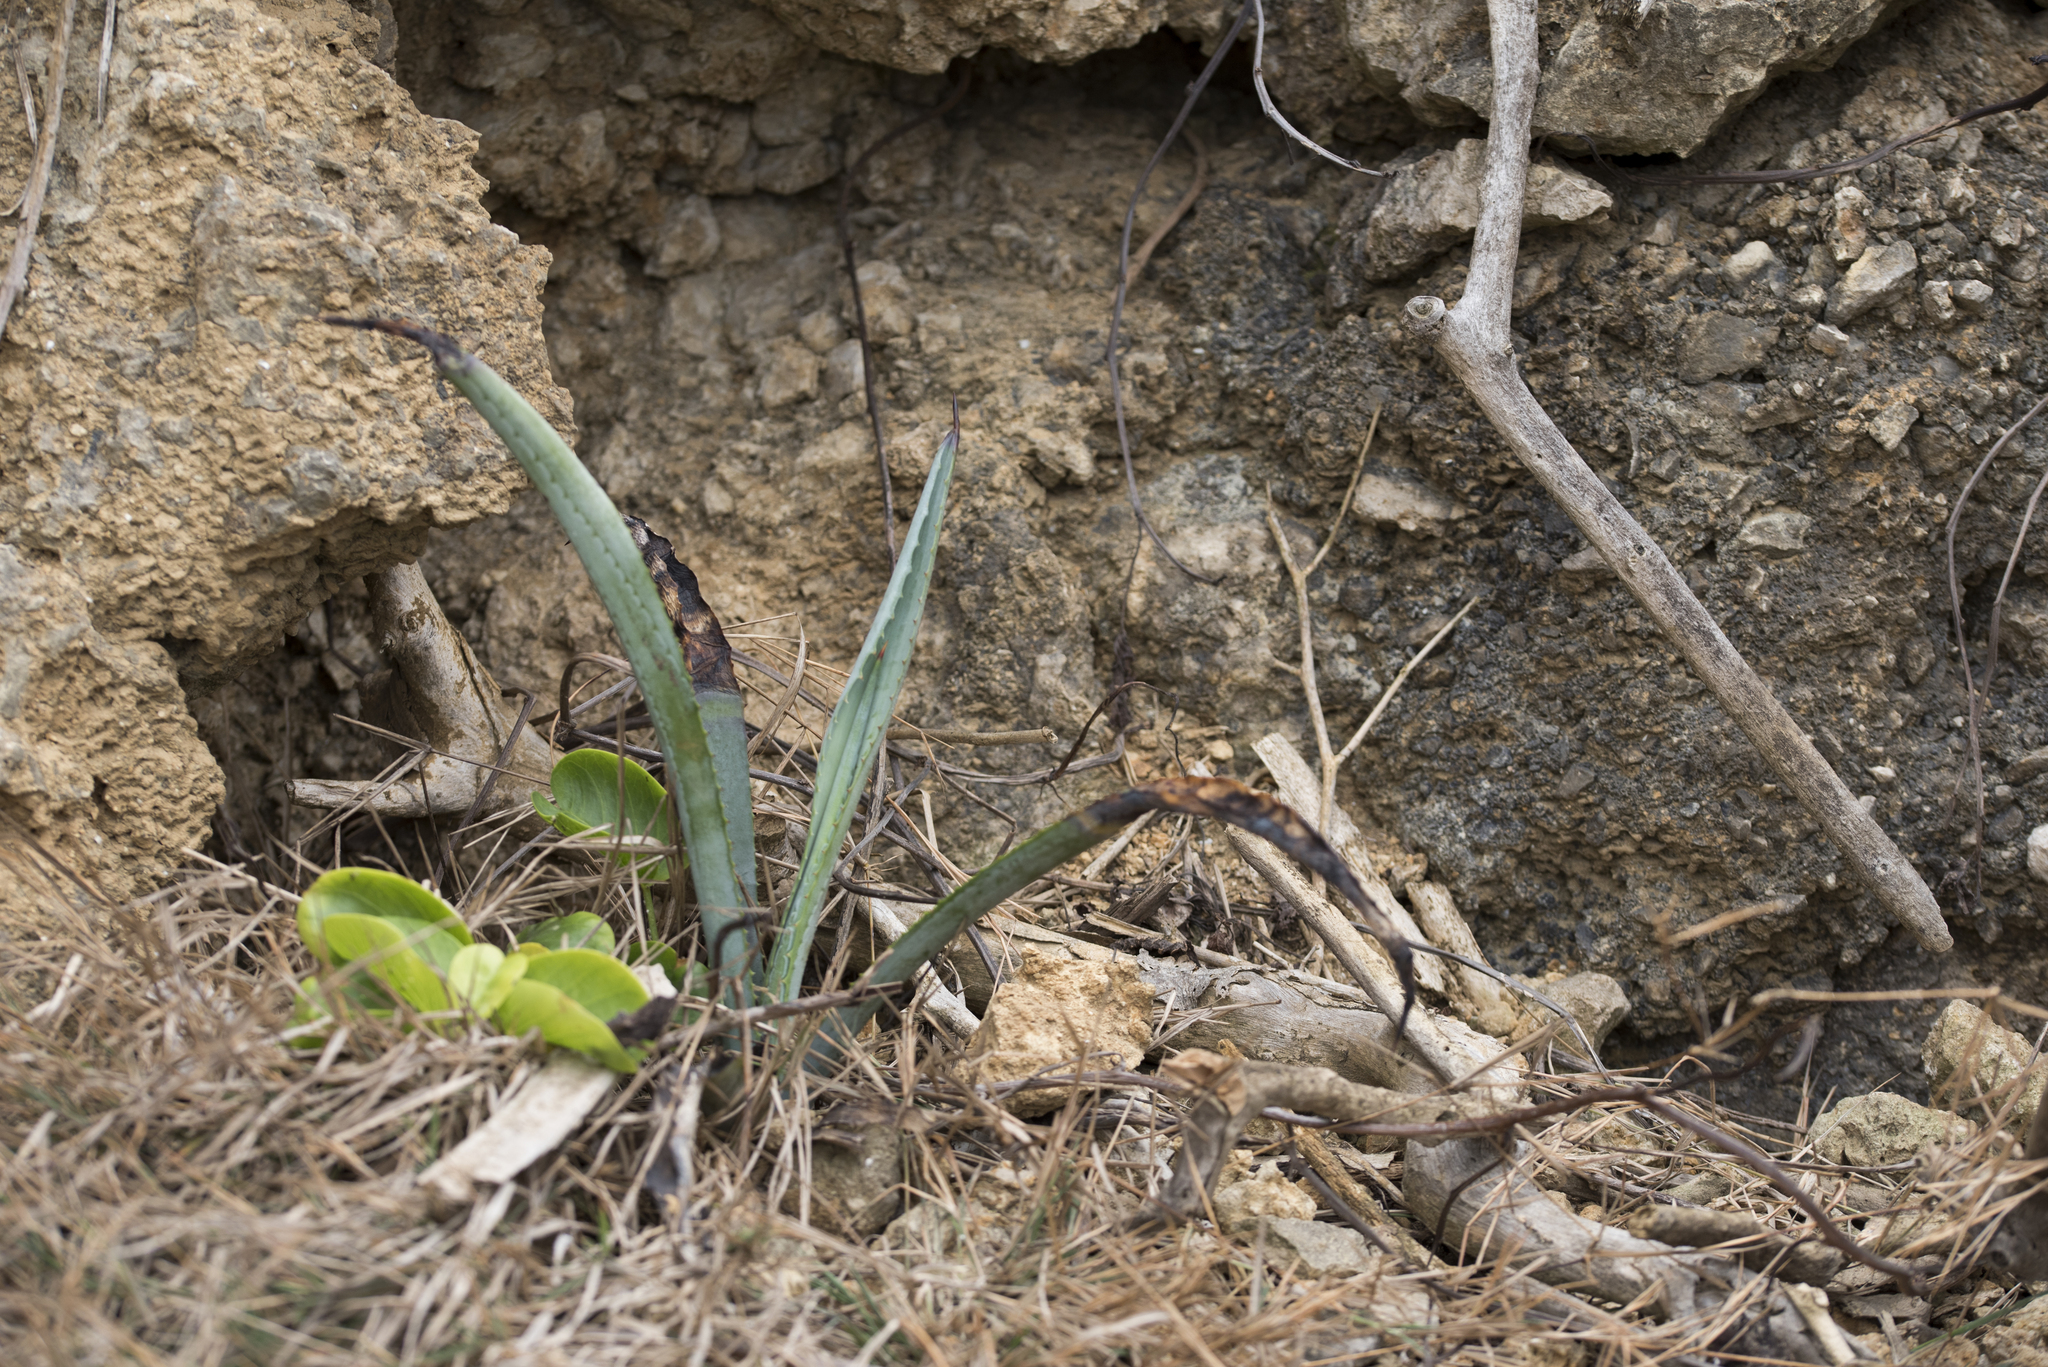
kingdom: Plantae
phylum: Tracheophyta
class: Liliopsida
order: Asparagales
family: Asparagaceae
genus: Agave
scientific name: Agave sisalana
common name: Sisal hemp
